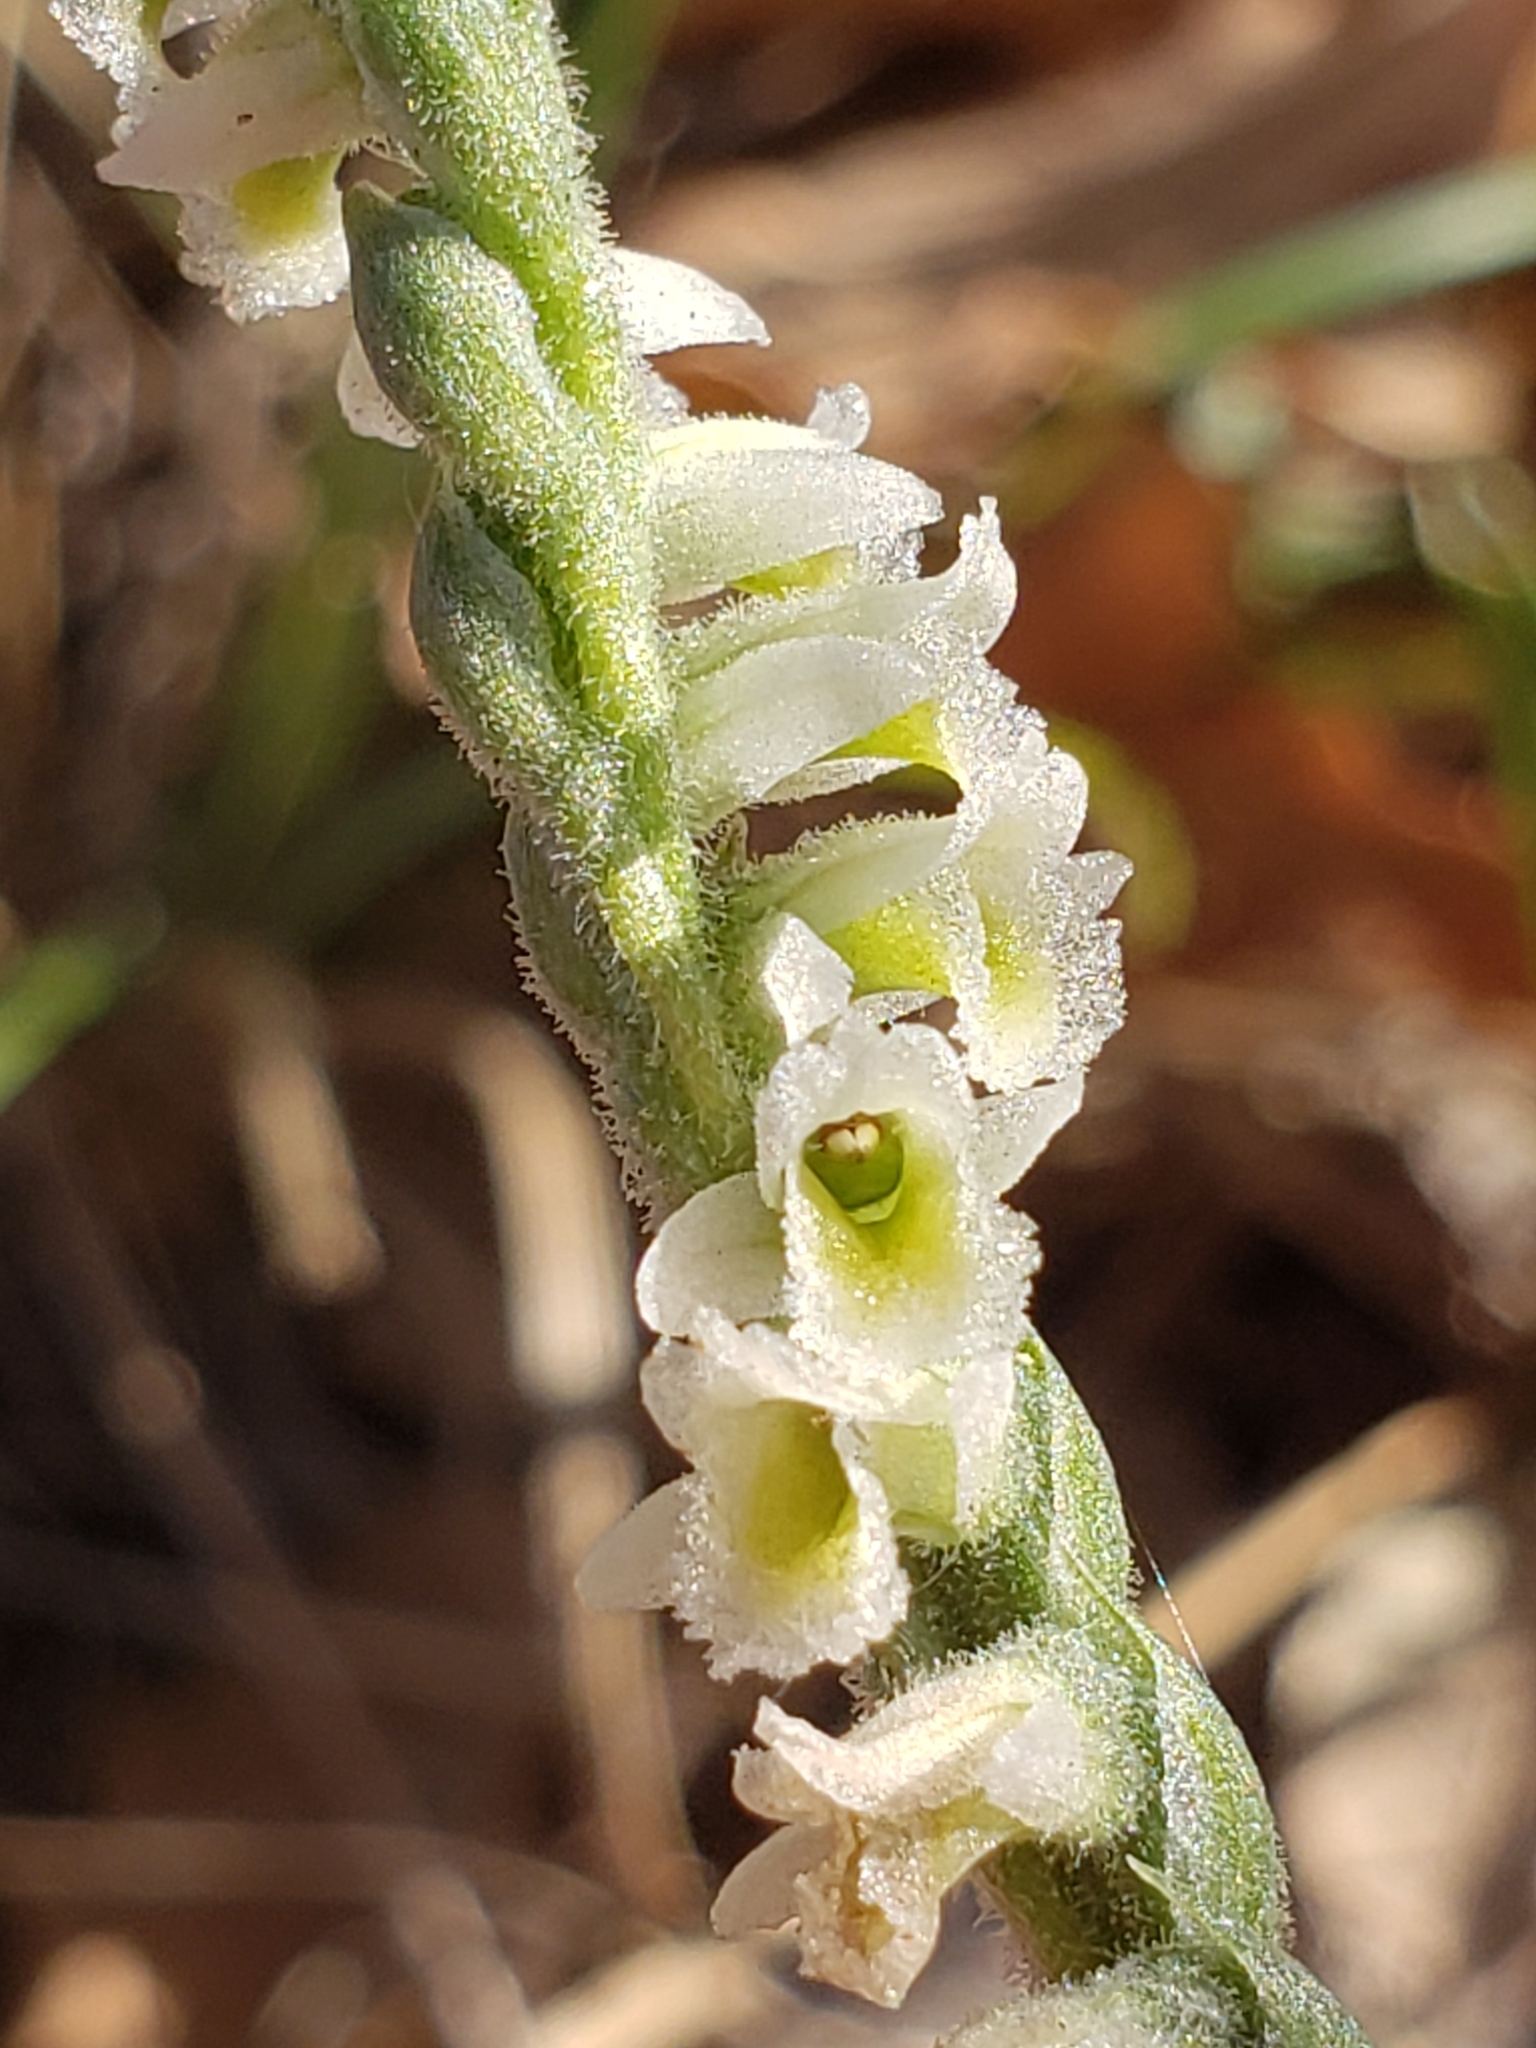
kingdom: Plantae
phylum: Tracheophyta
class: Liliopsida
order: Asparagales
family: Orchidaceae
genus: Spiranthes
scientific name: Spiranthes spiralis
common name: Autumn lady's-tresses
